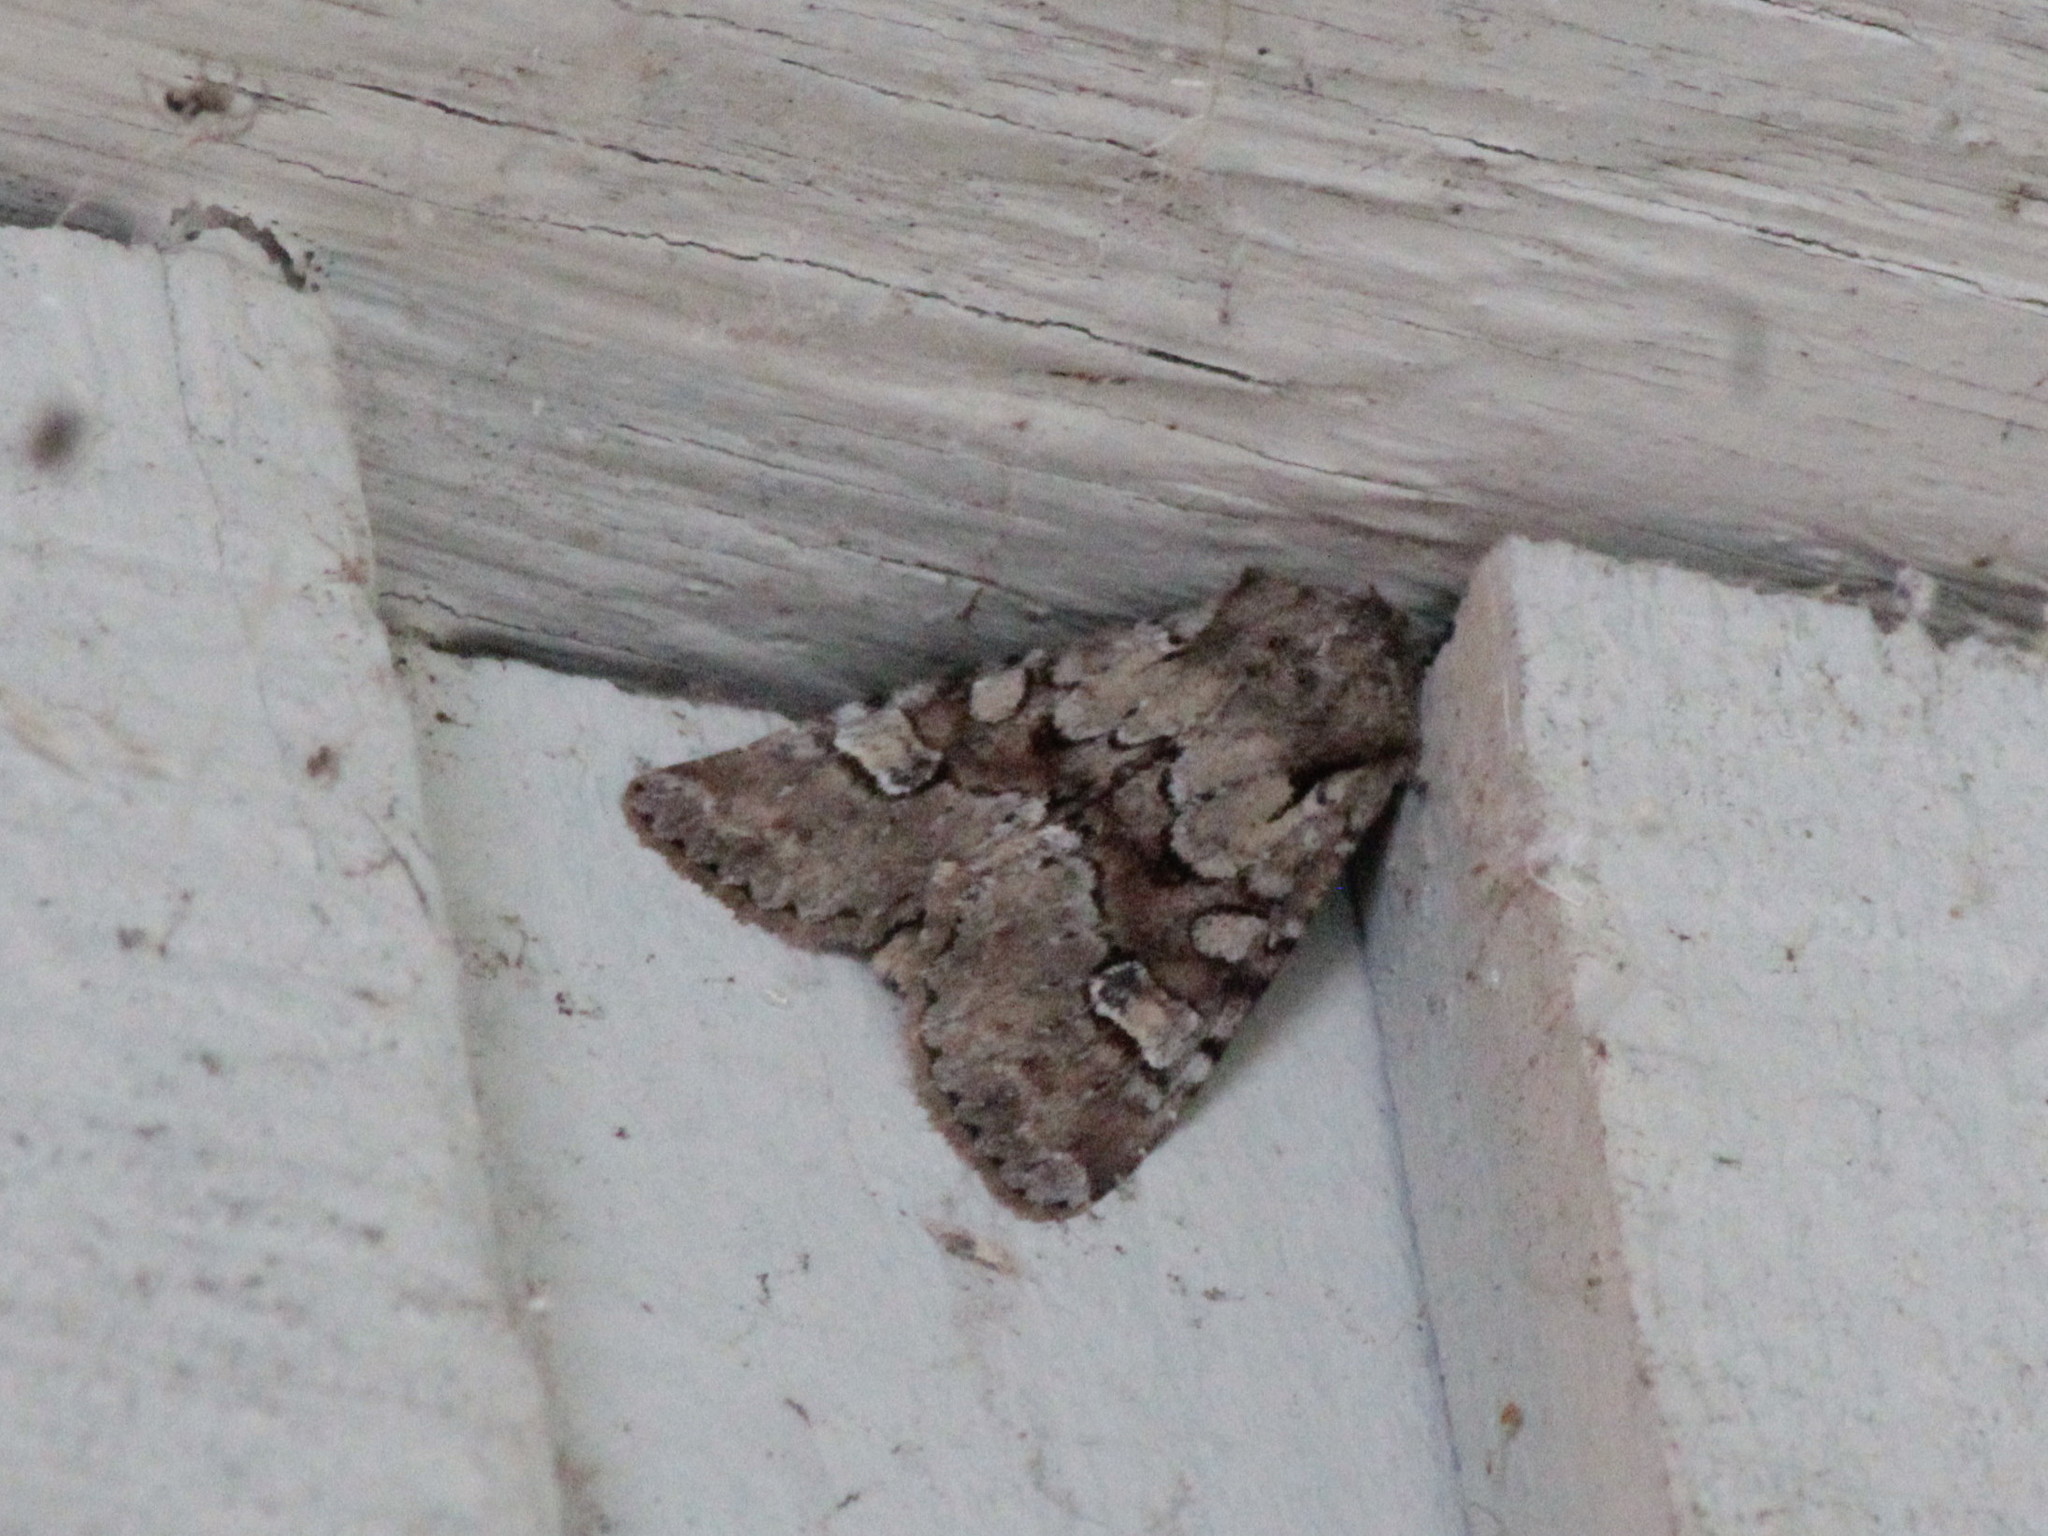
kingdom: Animalia
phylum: Arthropoda
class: Insecta
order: Lepidoptera
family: Noctuidae
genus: Apamea
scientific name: Apamea sordens
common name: Rustic shoulder-knot
